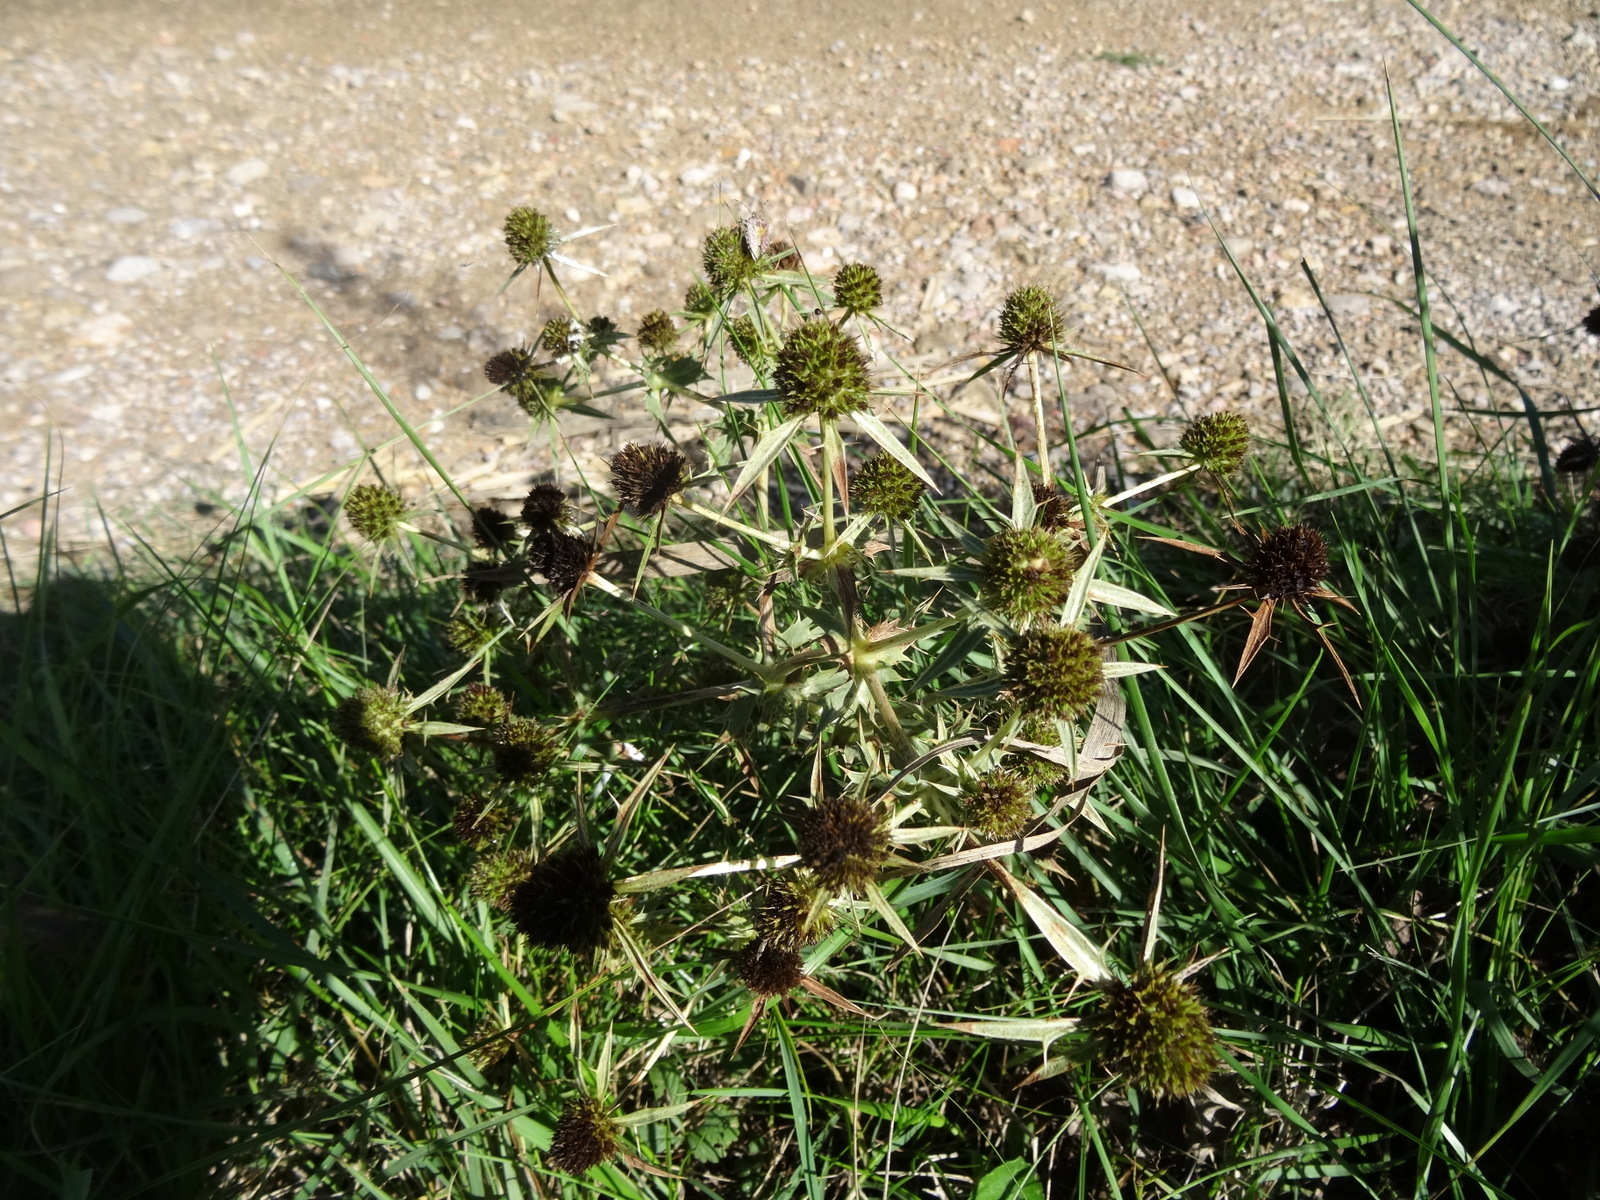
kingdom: Plantae
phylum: Tracheophyta
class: Magnoliopsida
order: Apiales
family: Apiaceae
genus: Eryngium
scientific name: Eryngium campestre
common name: Field eryngo
